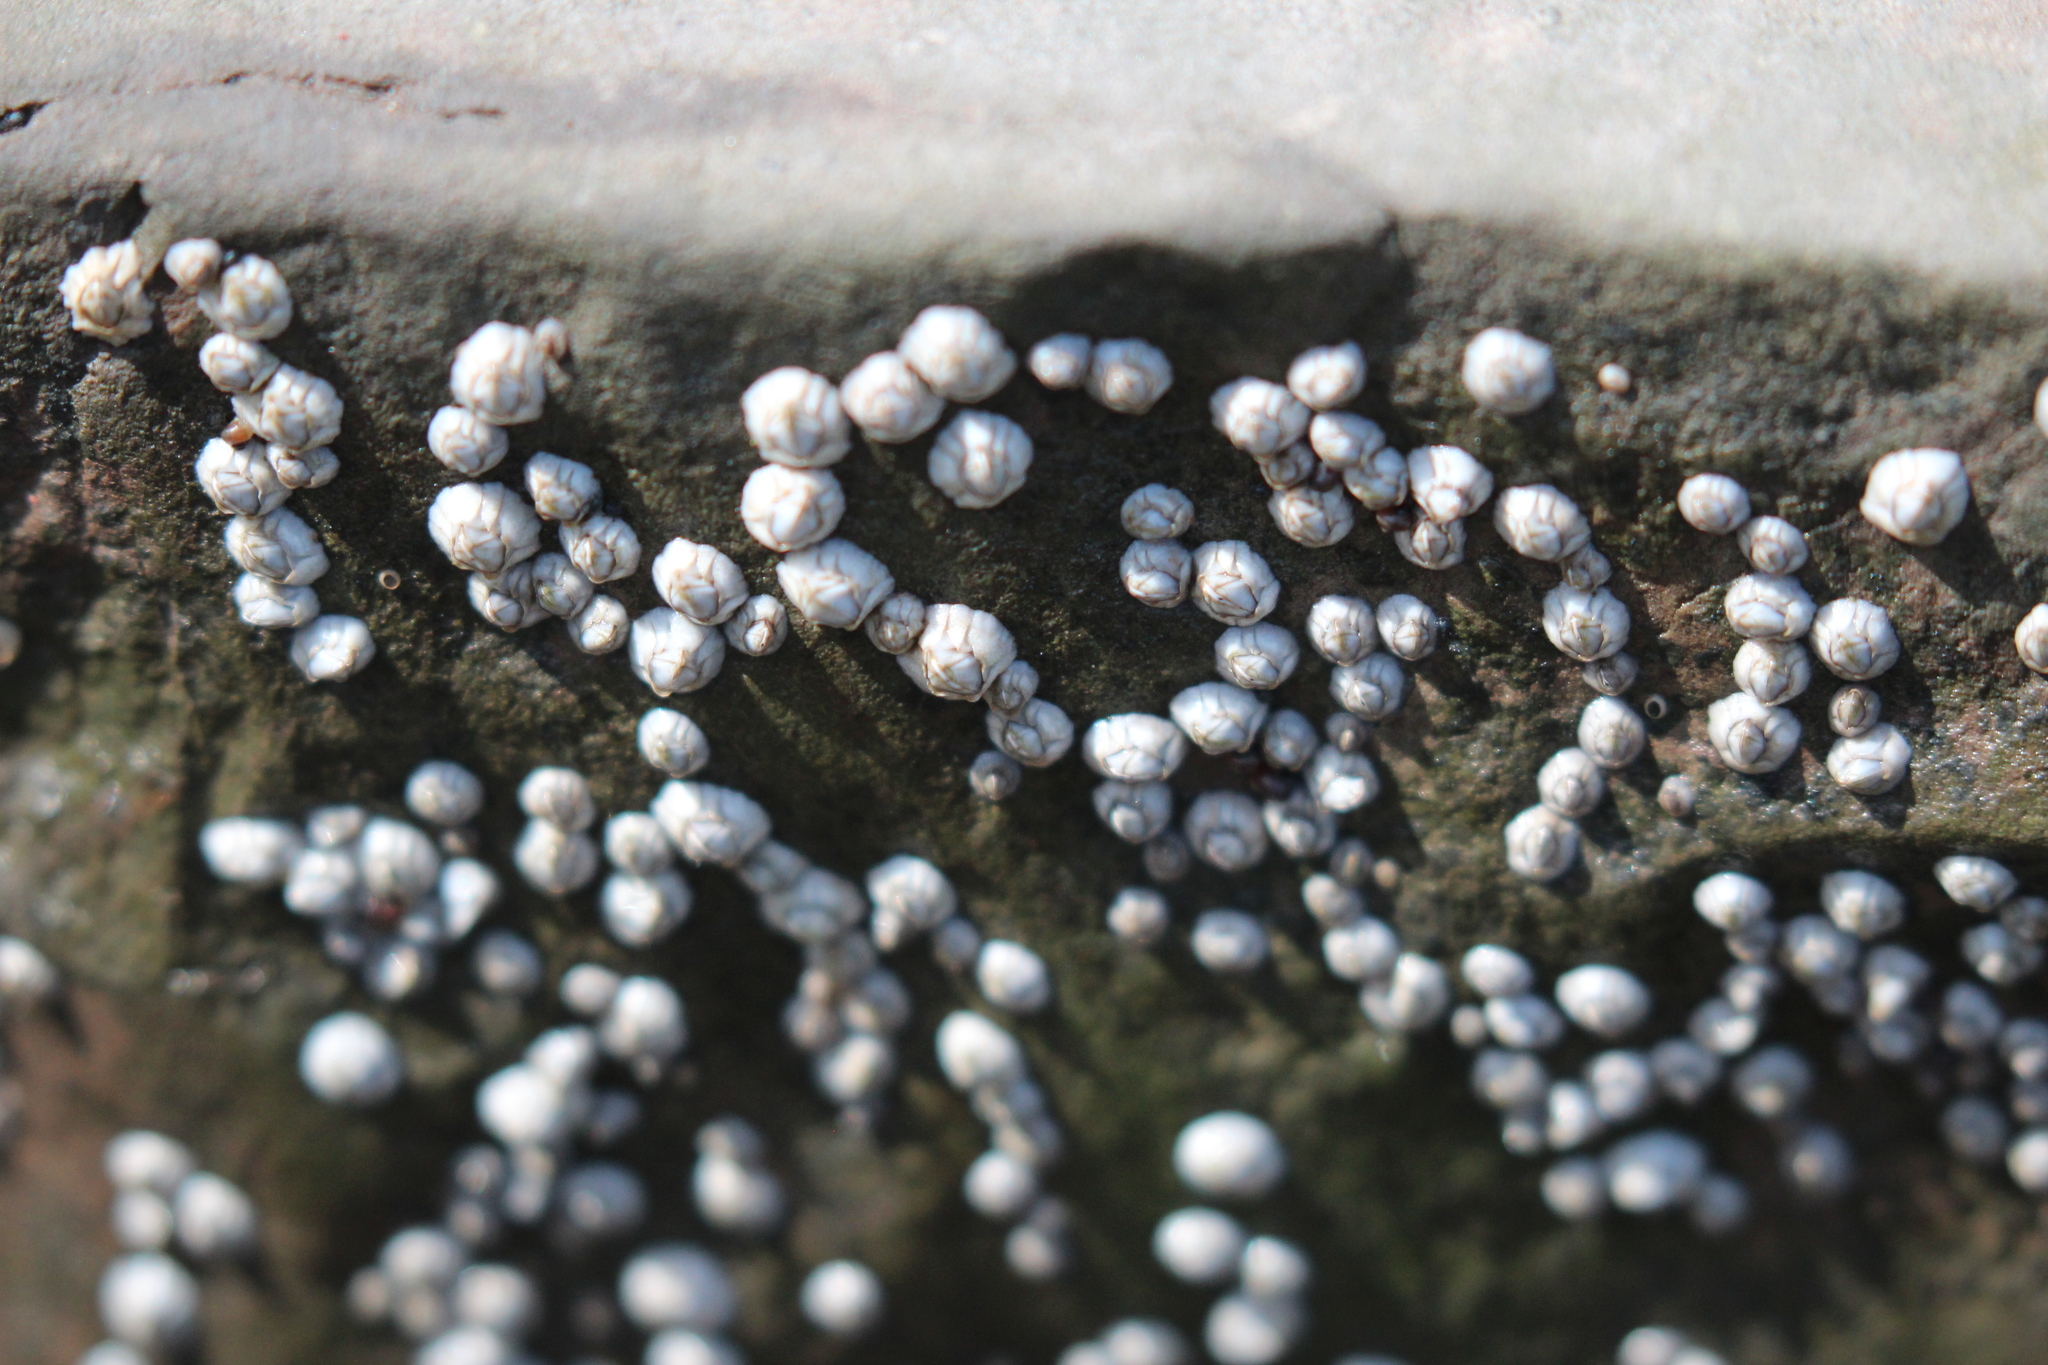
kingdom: Animalia
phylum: Arthropoda
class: Maxillopoda
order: Sessilia
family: Archaeobalanidae
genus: Semibalanus
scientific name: Semibalanus balanoides
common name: Acorn barnacle
